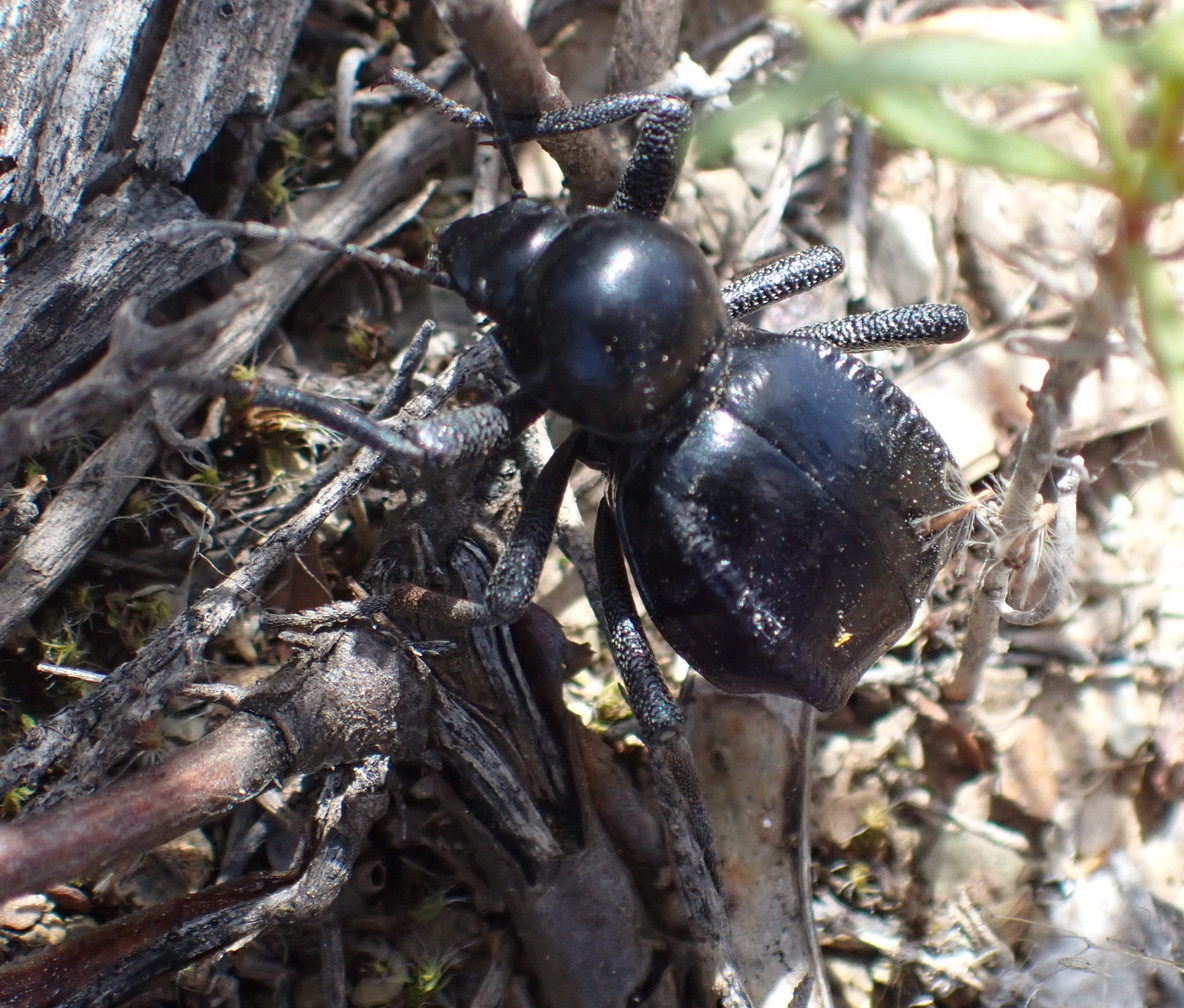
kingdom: Animalia
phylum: Arthropoda
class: Insecta
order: Coleoptera
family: Tenebrionidae
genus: Moluris
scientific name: Moluris gibba
